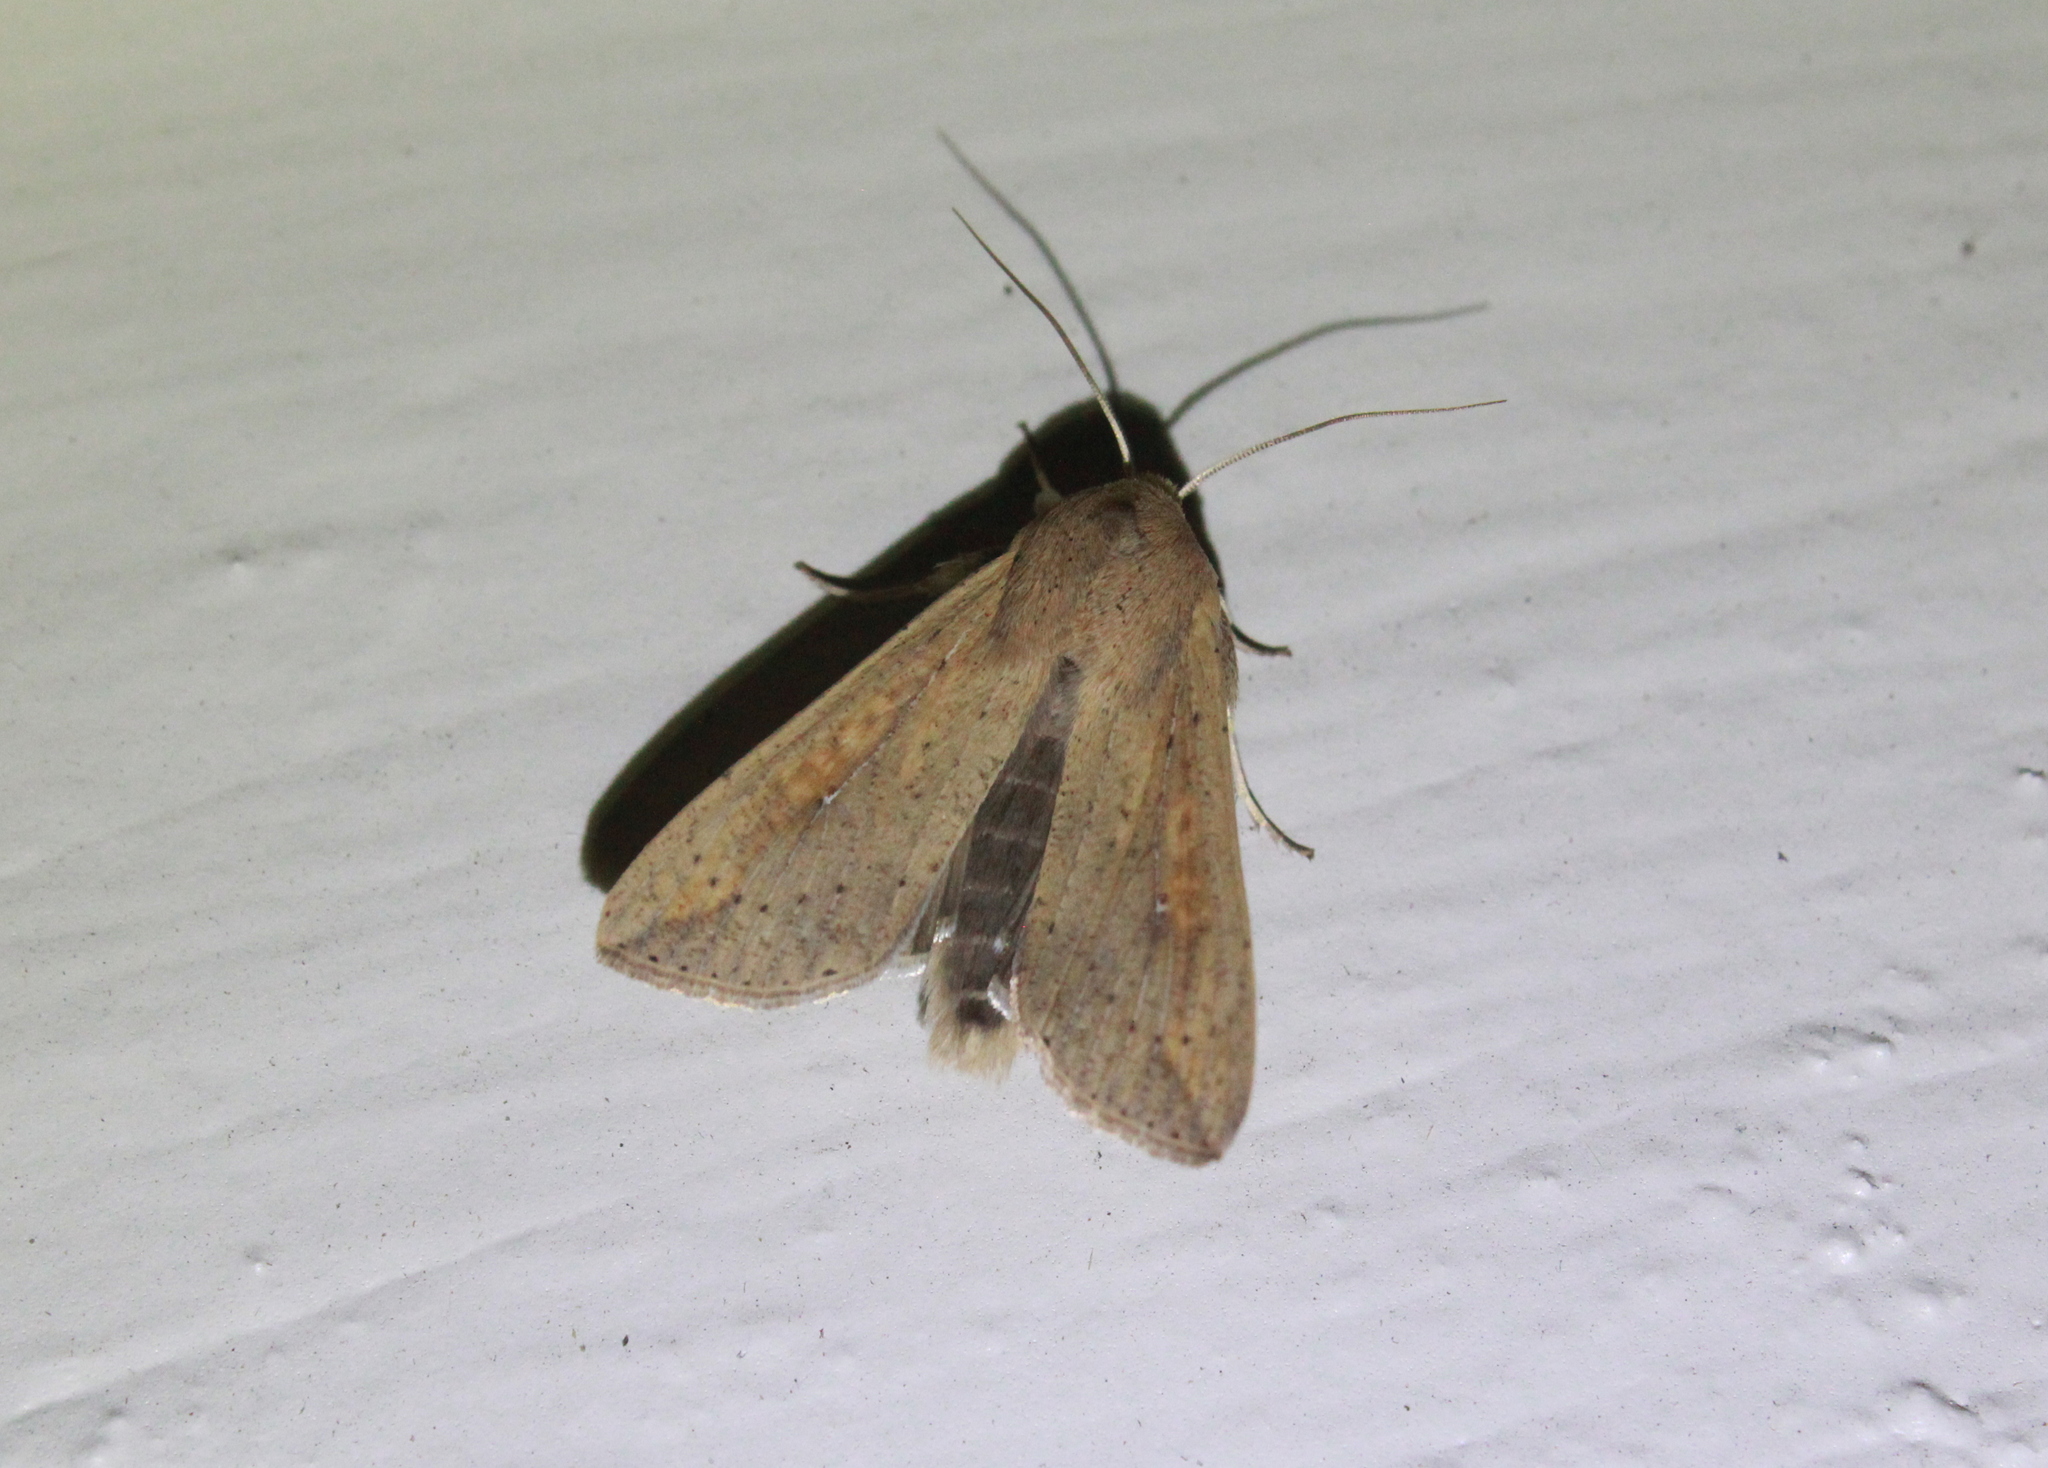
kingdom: Animalia
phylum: Arthropoda
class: Insecta
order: Lepidoptera
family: Noctuidae
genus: Mythimna
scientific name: Mythimna unipuncta
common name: White-speck
